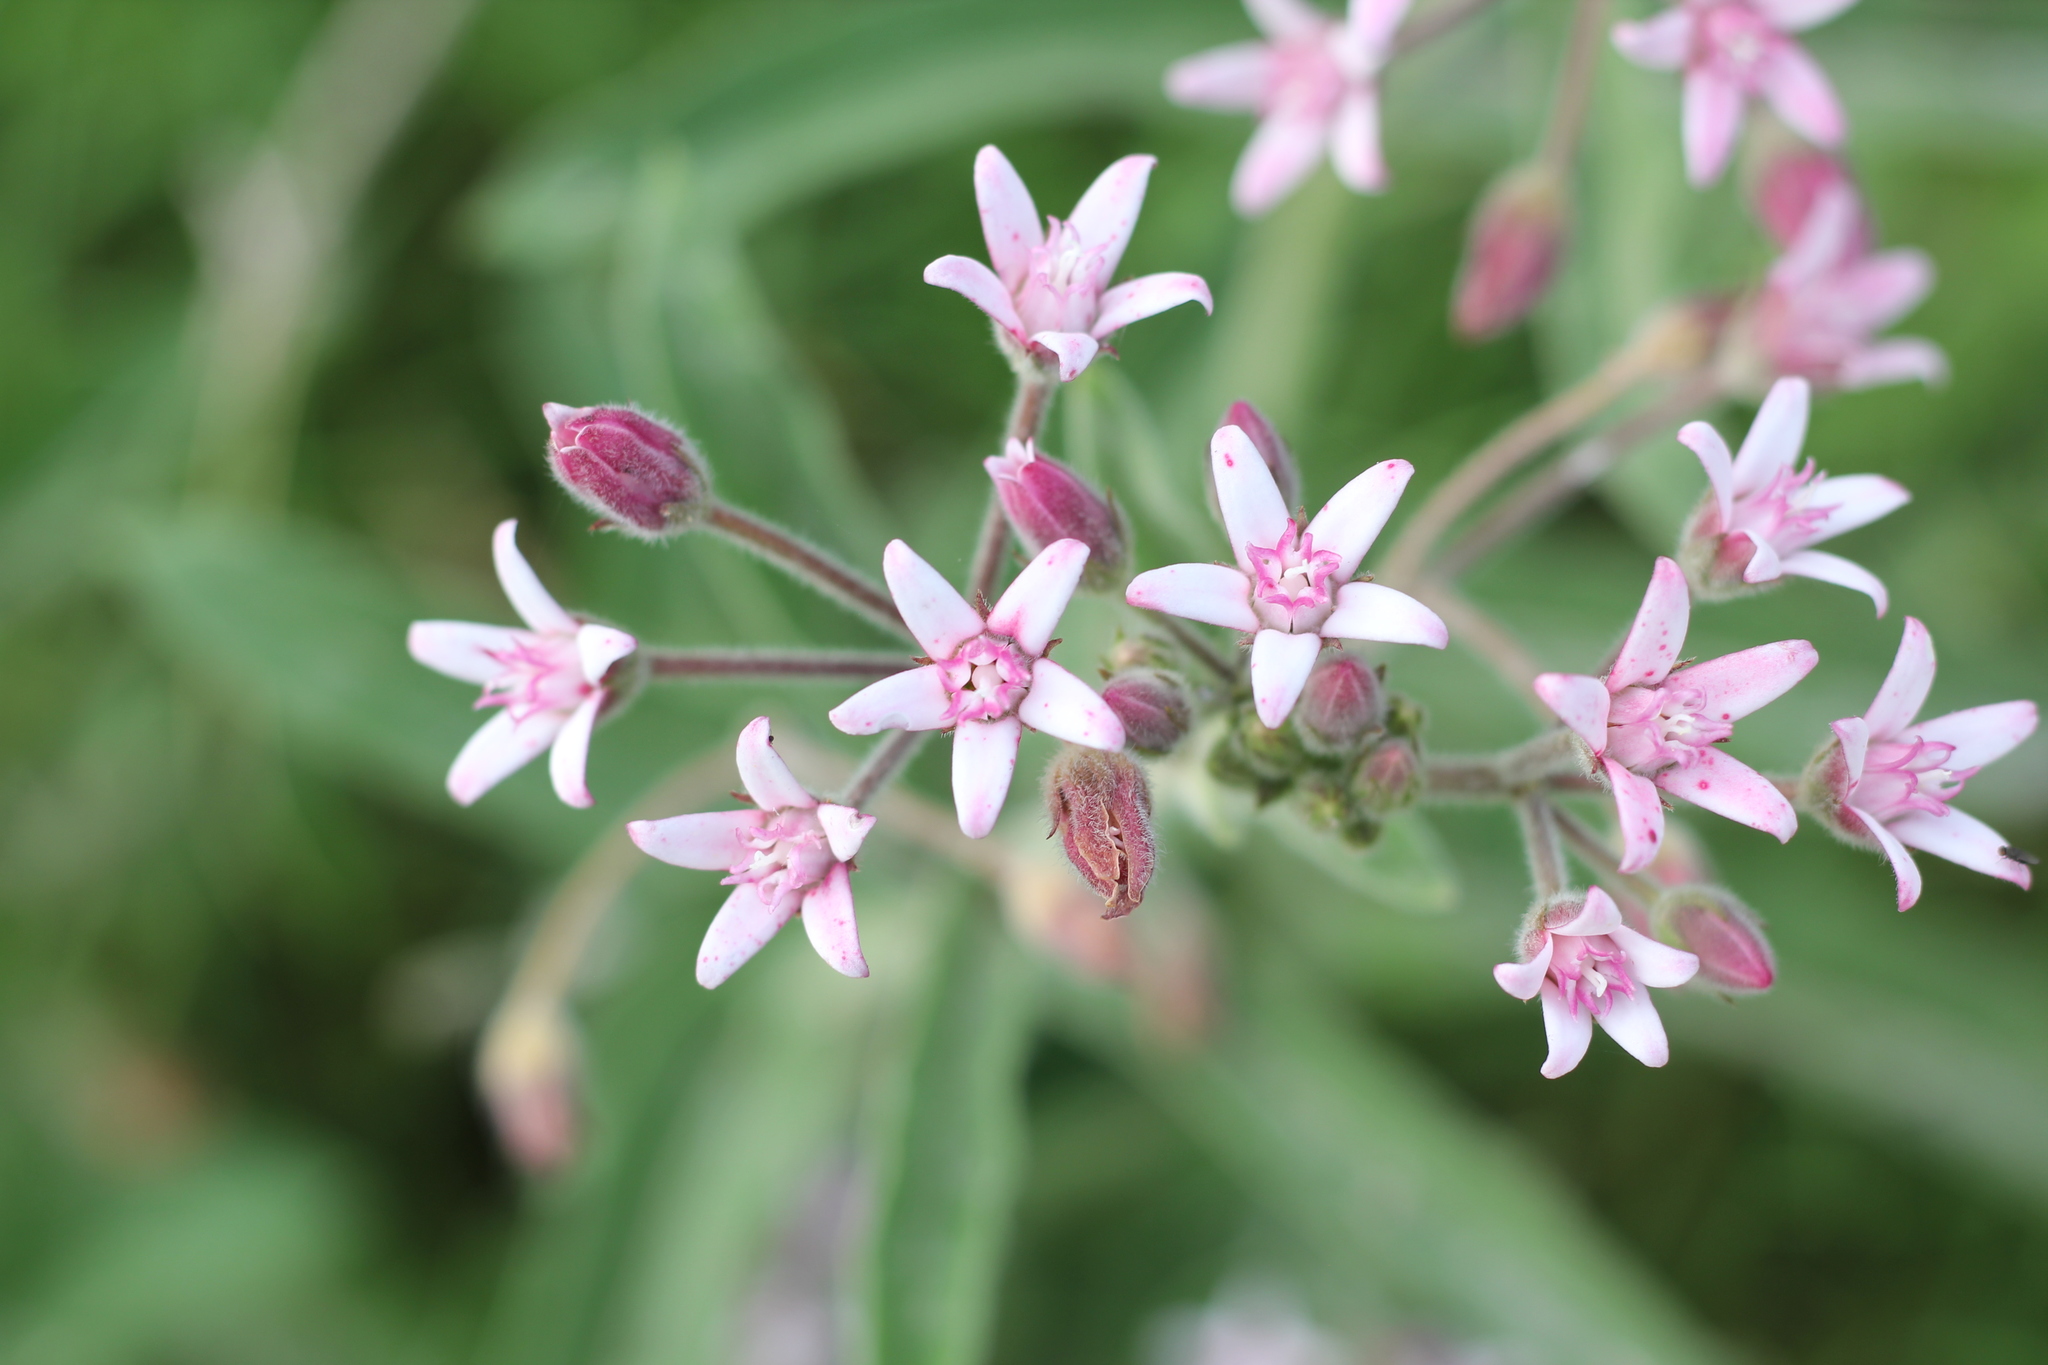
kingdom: Plantae
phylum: Tracheophyta
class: Magnoliopsida
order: Gentianales
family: Apocynaceae
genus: Oxypetalum
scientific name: Oxypetalum solanoides
